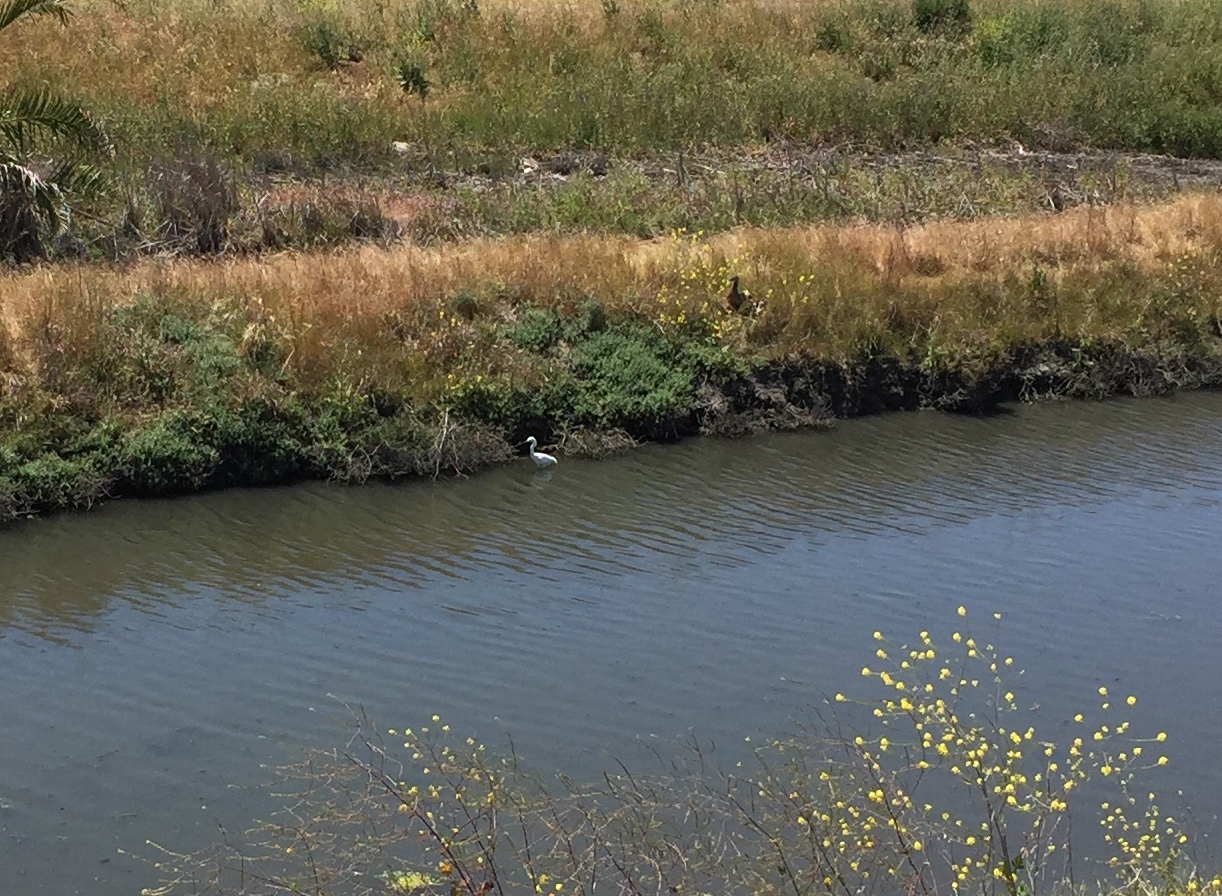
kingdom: Animalia
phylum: Chordata
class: Aves
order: Pelecaniformes
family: Ardeidae
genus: Egretta
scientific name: Egretta thula
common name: Snowy egret
